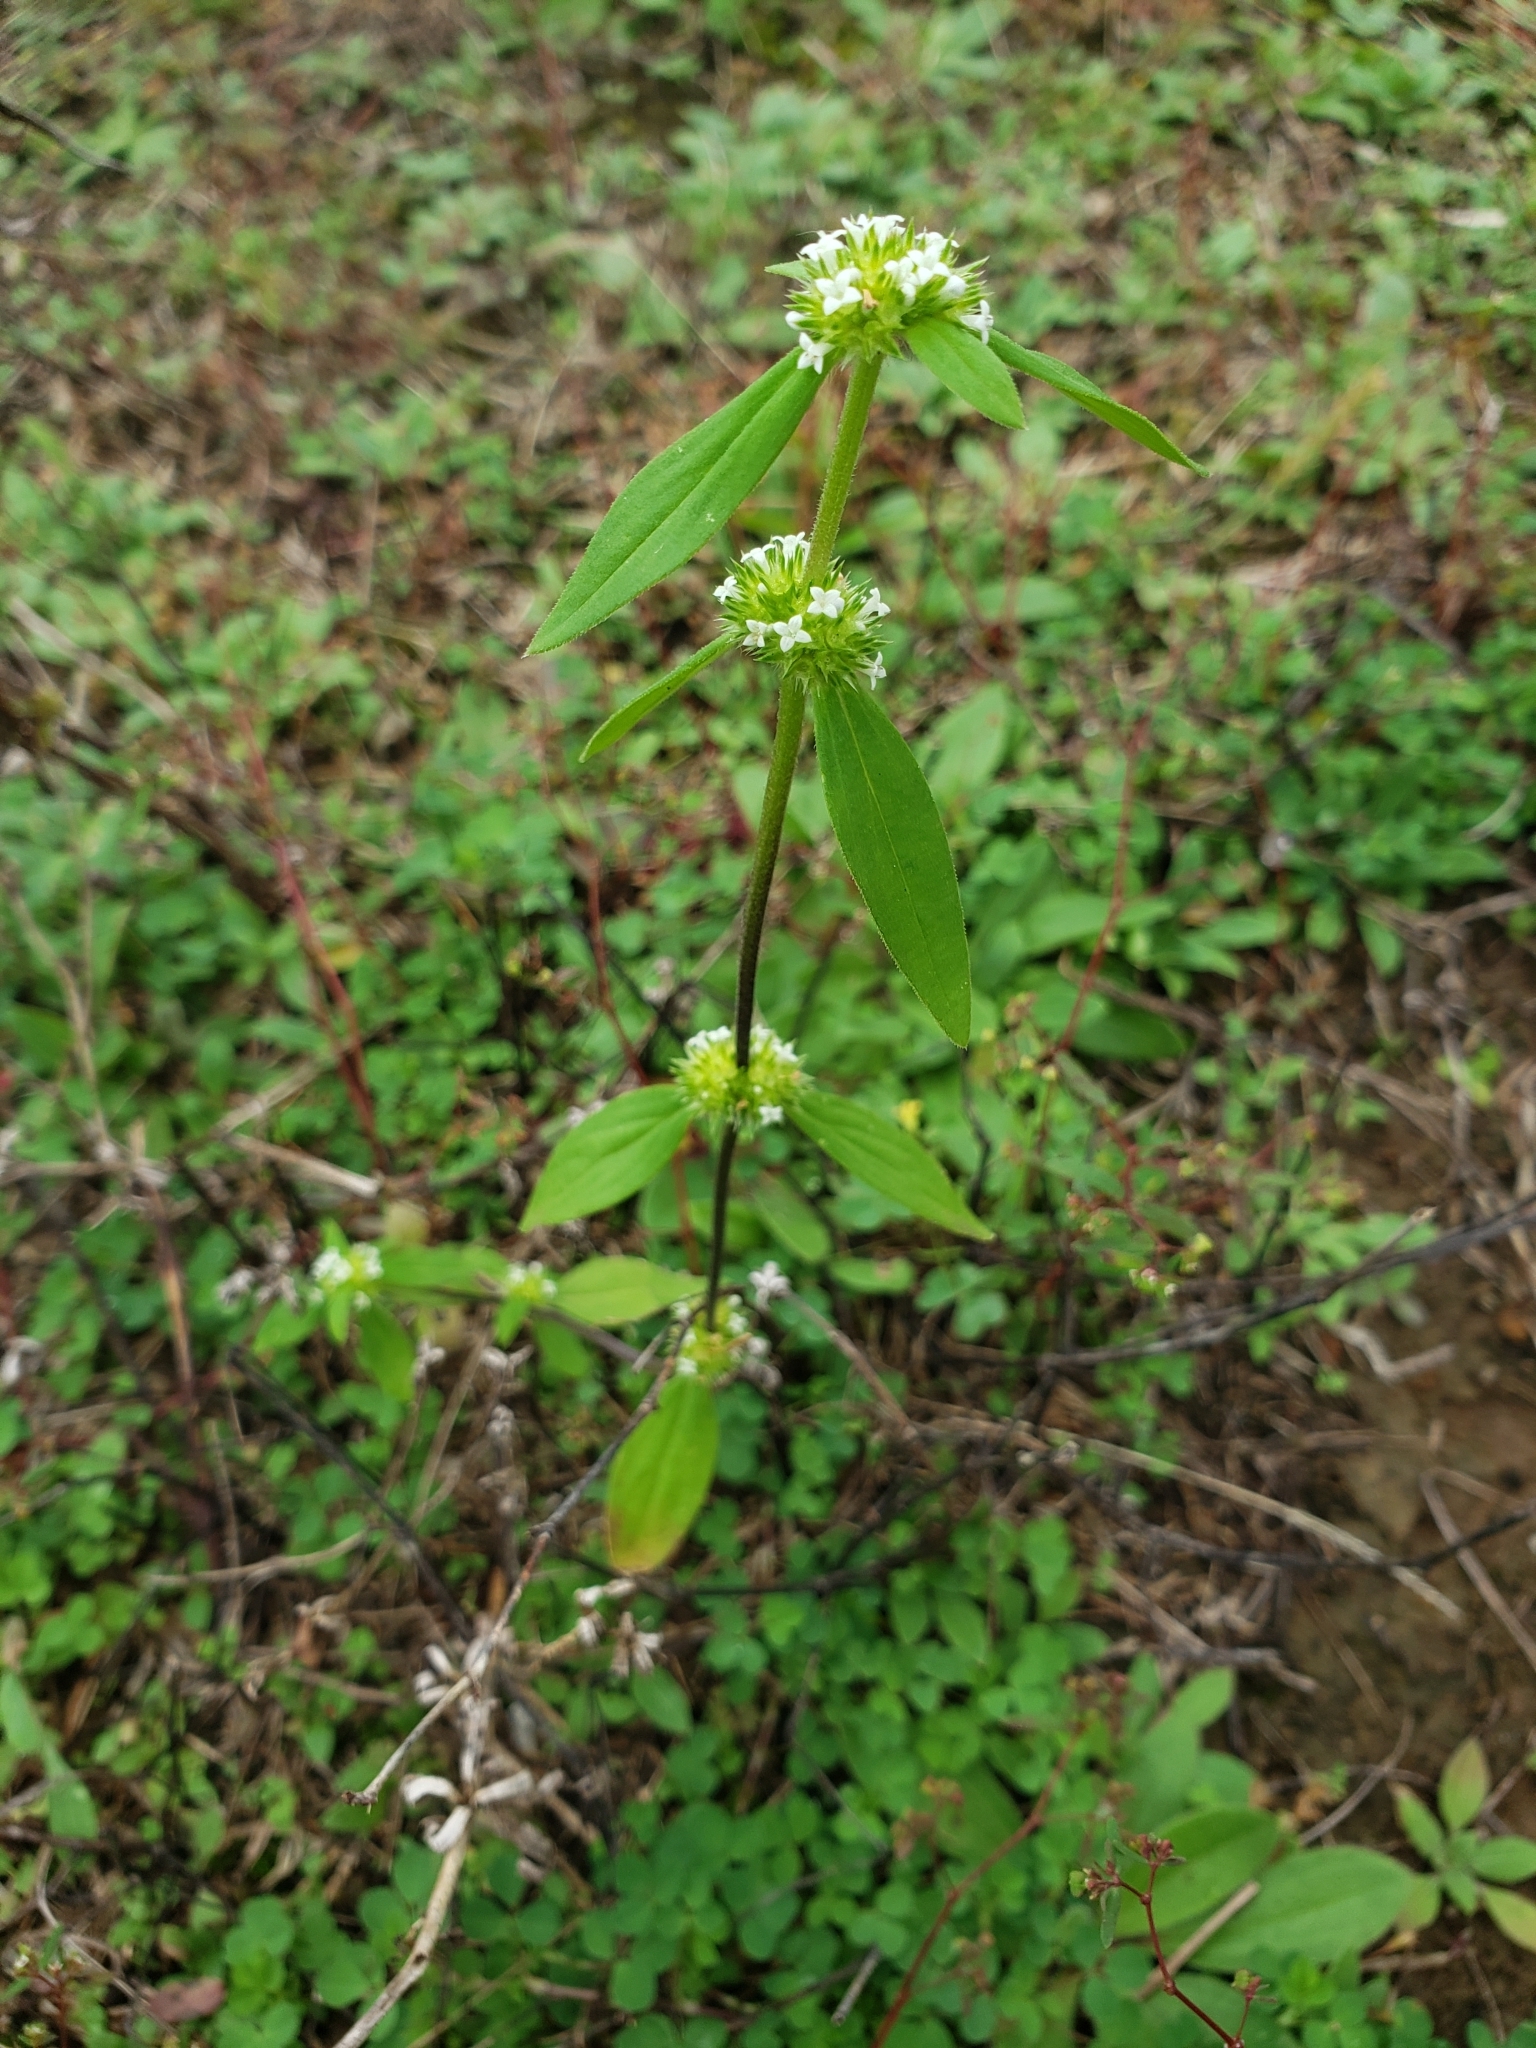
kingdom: Plantae
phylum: Tracheophyta
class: Magnoliopsida
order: Gentianales
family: Rubiaceae
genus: Spermacoce
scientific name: Spermacoce glabra
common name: Smooth buttonweed
